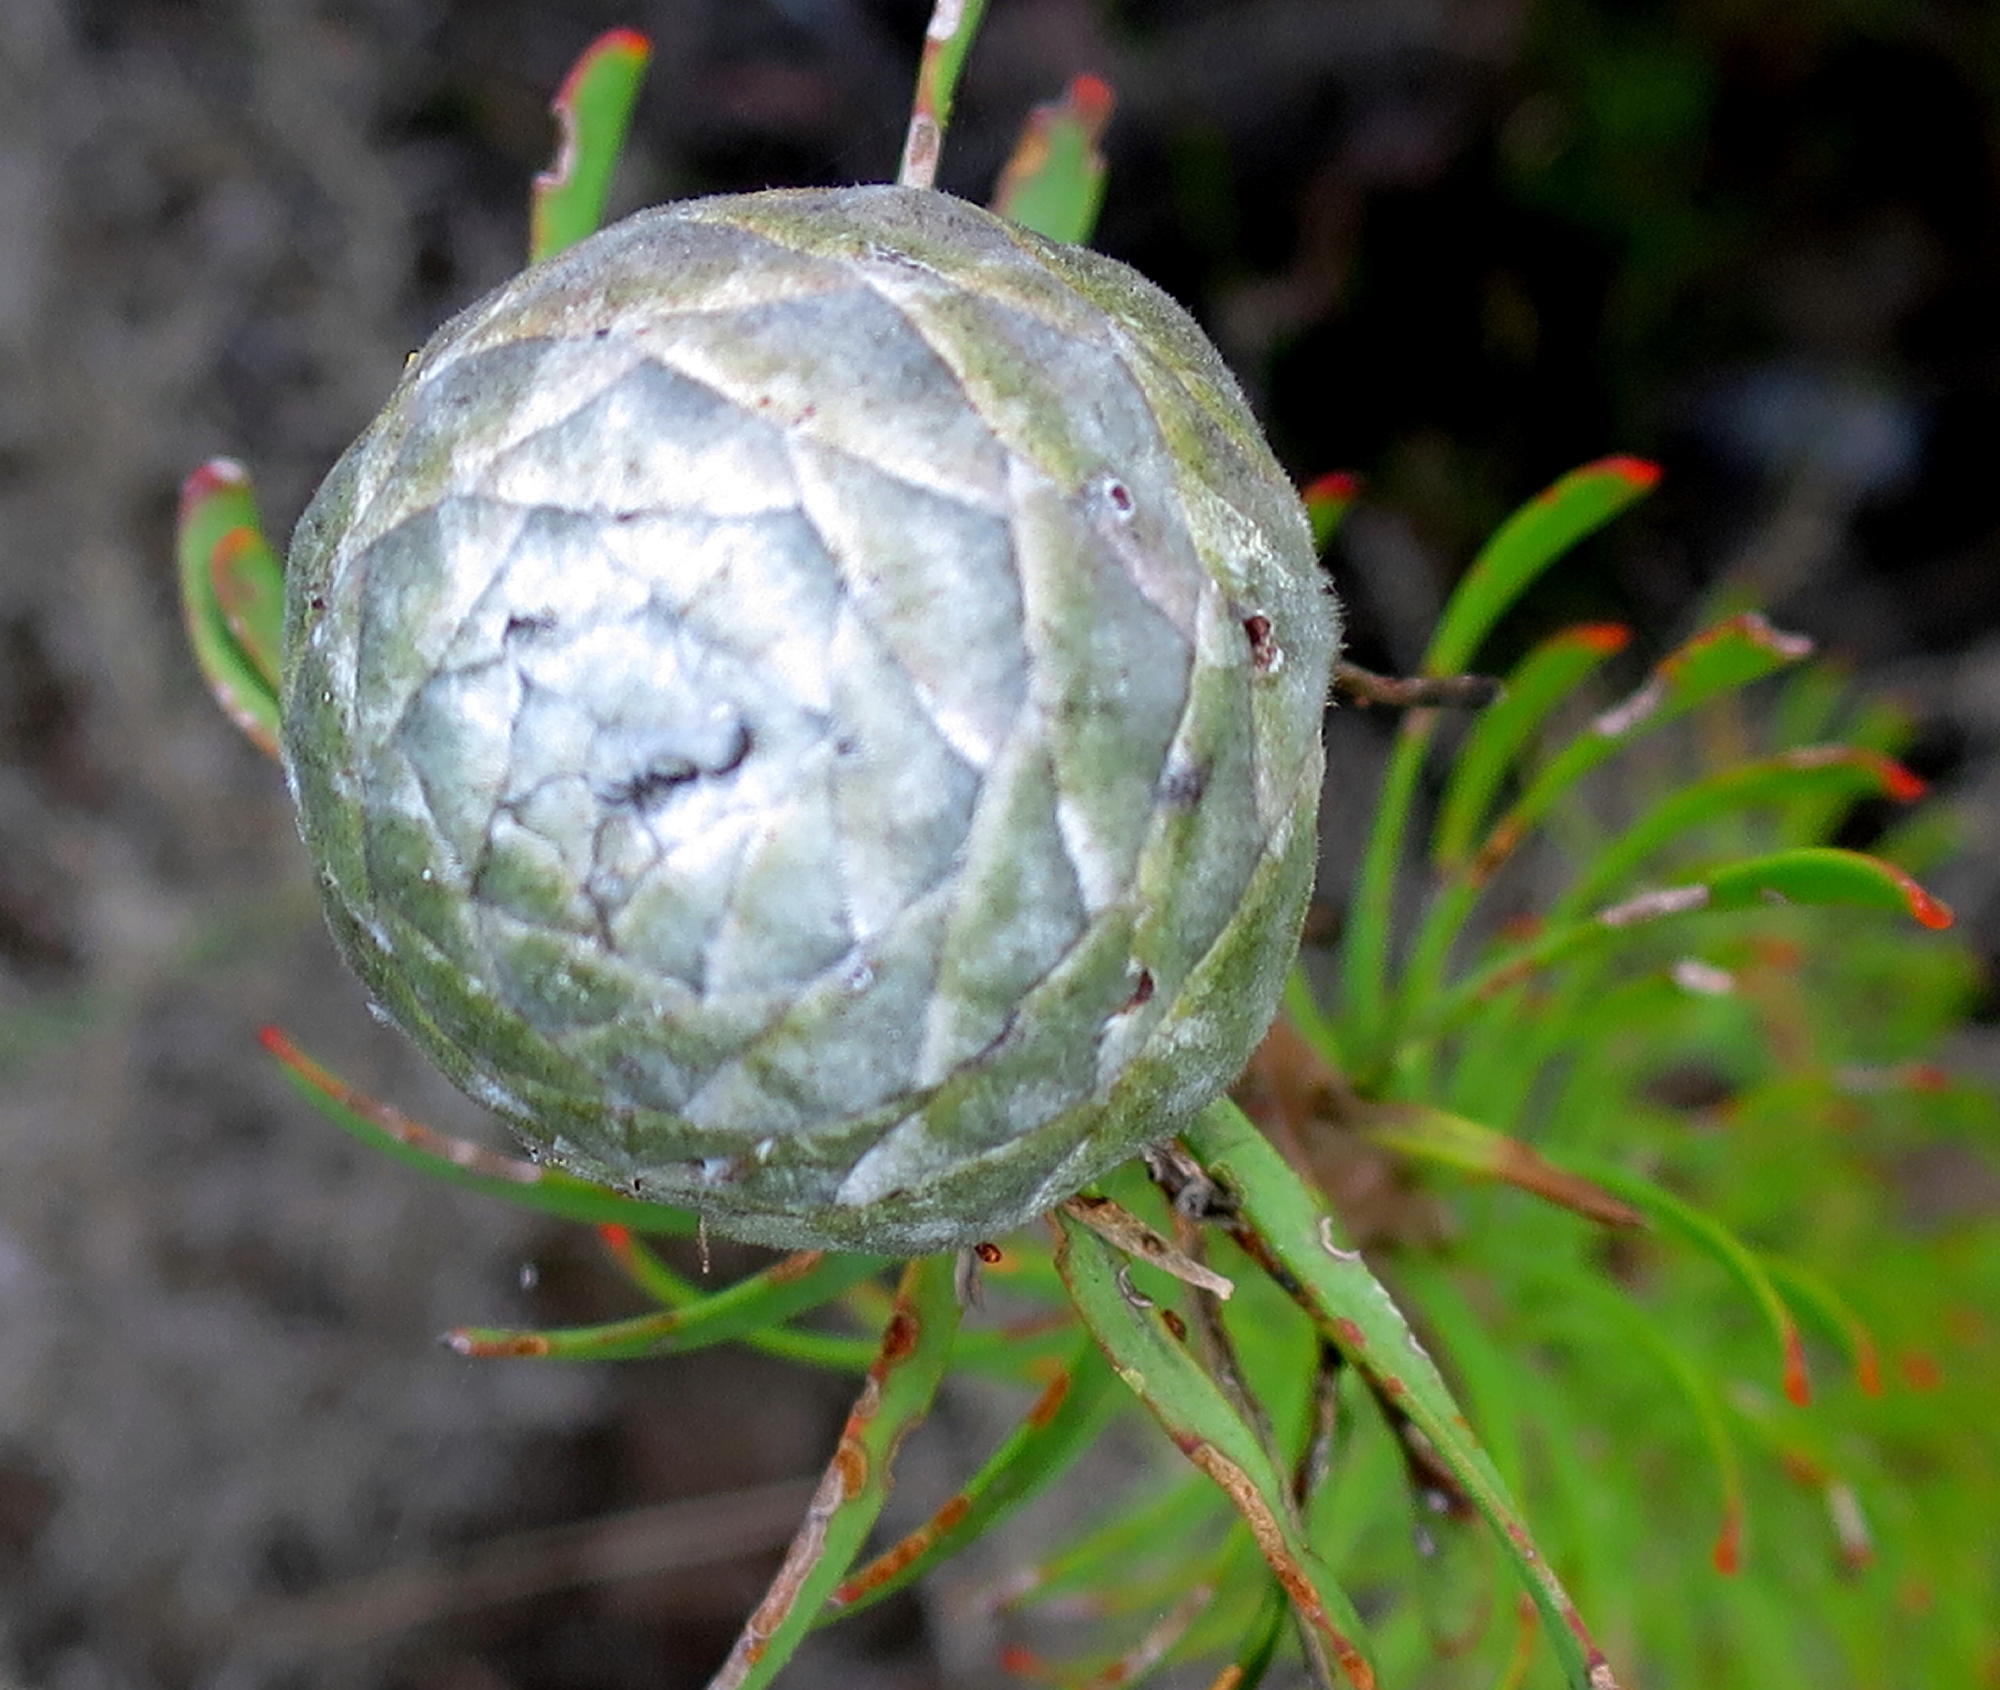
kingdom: Plantae
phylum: Tracheophyta
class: Magnoliopsida
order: Proteales
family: Proteaceae
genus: Leucadendron
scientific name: Leucadendron galpinii
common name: Hairless conebush
